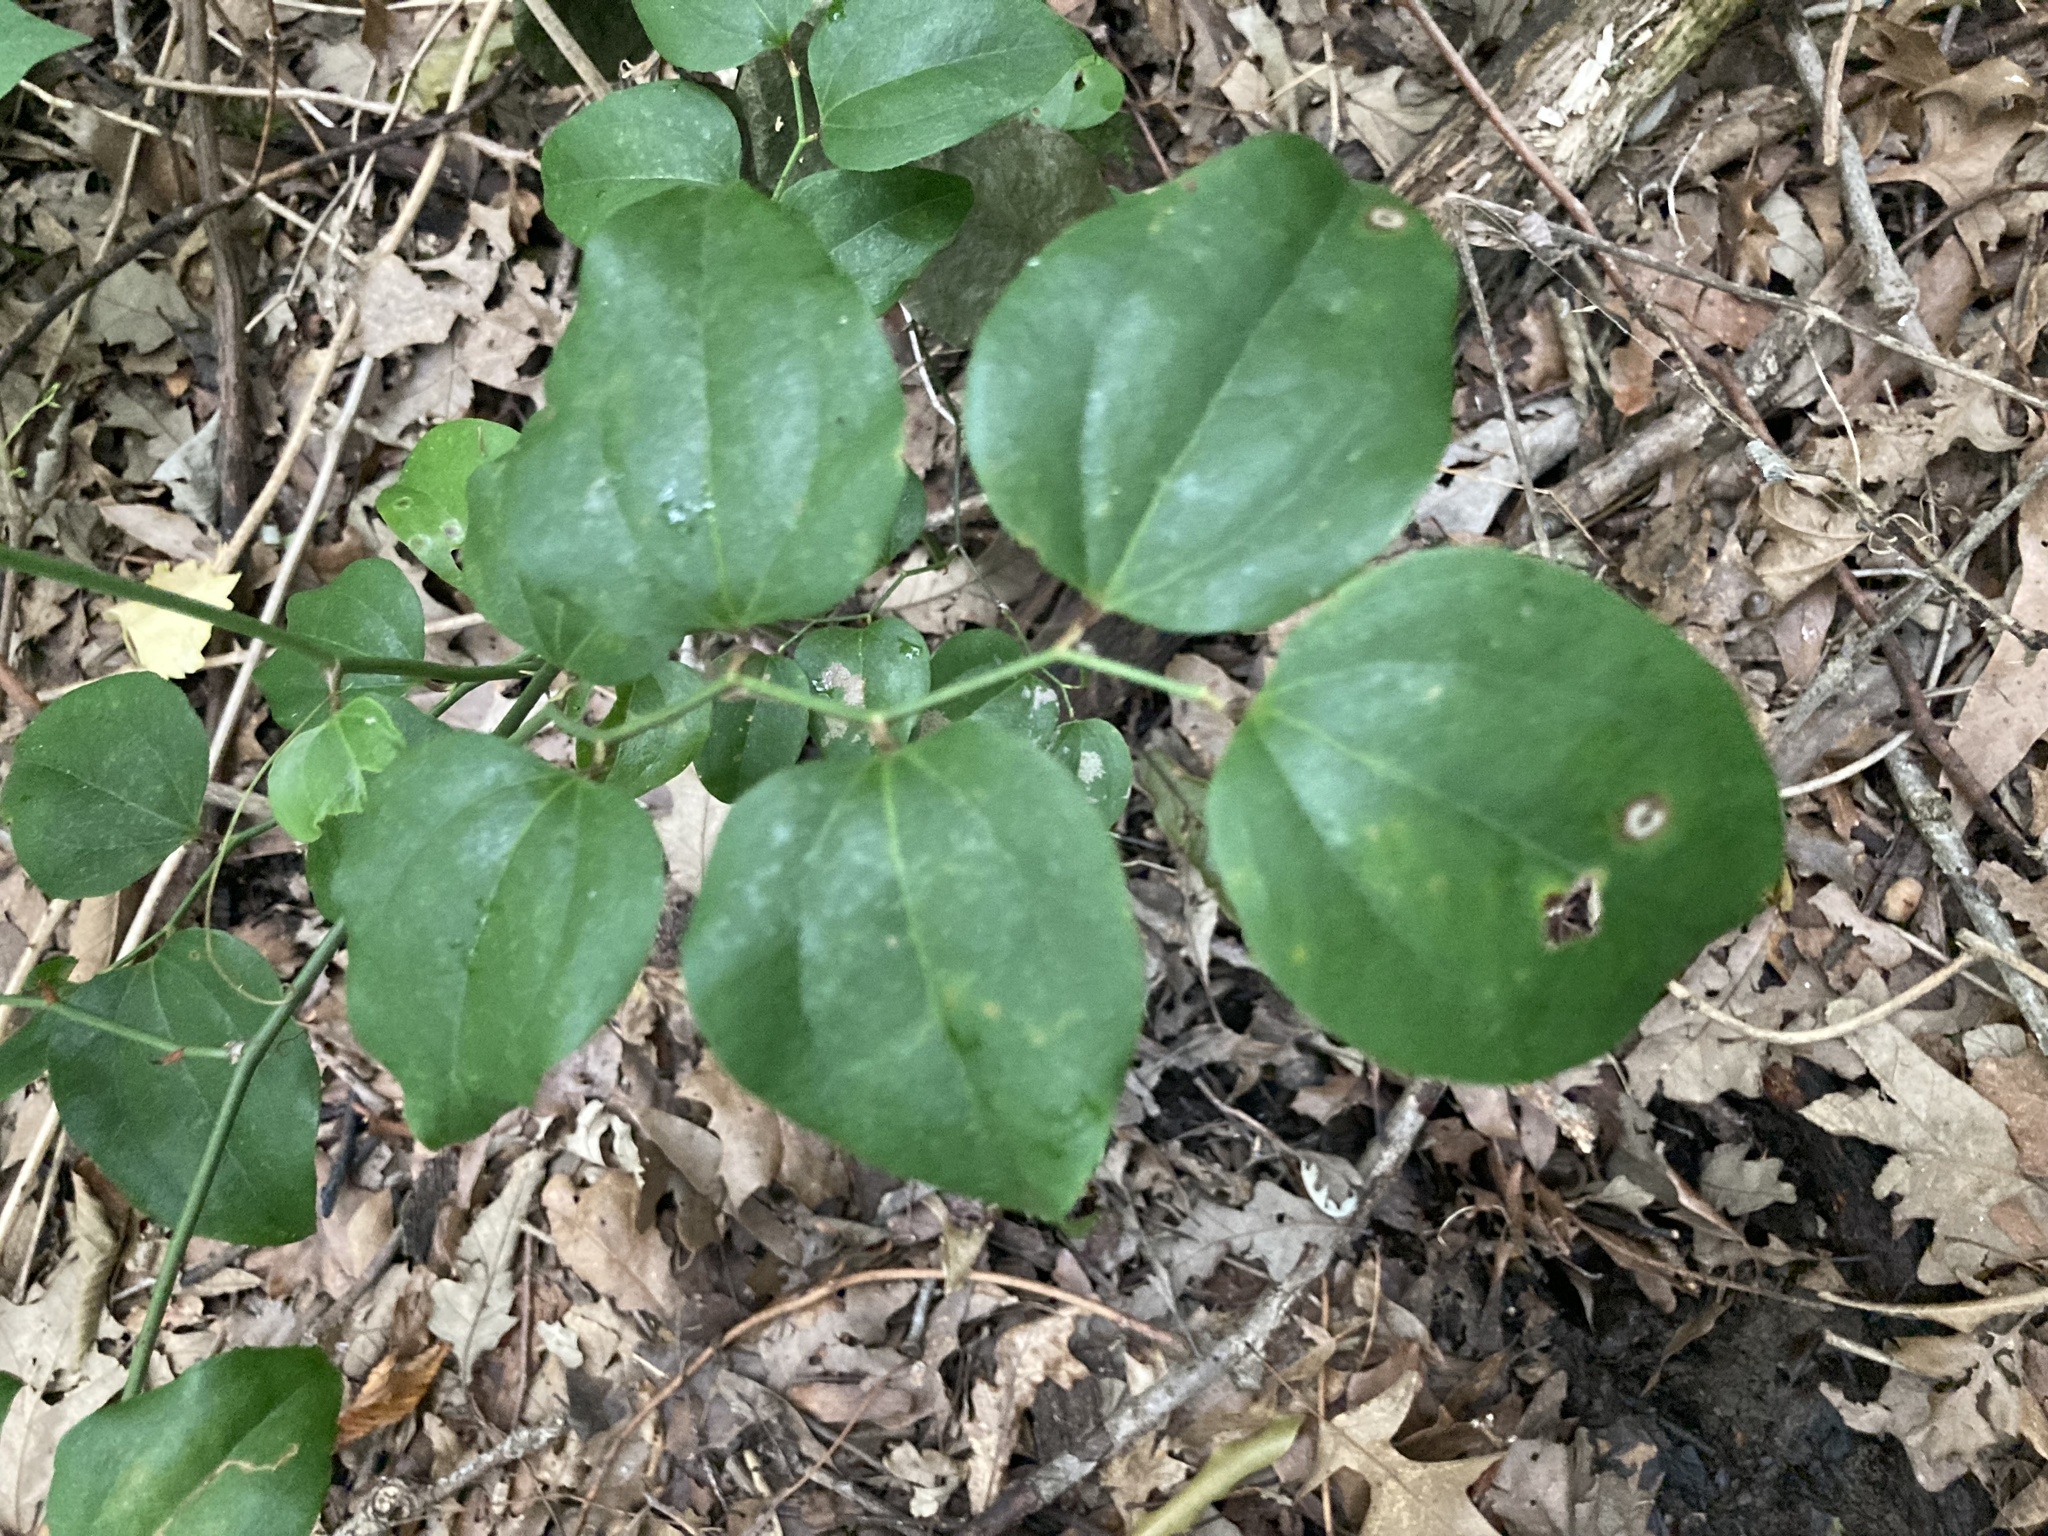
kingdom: Plantae
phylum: Tracheophyta
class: Liliopsida
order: Liliales
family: Smilacaceae
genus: Smilax
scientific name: Smilax rotundifolia
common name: Bullbriar
